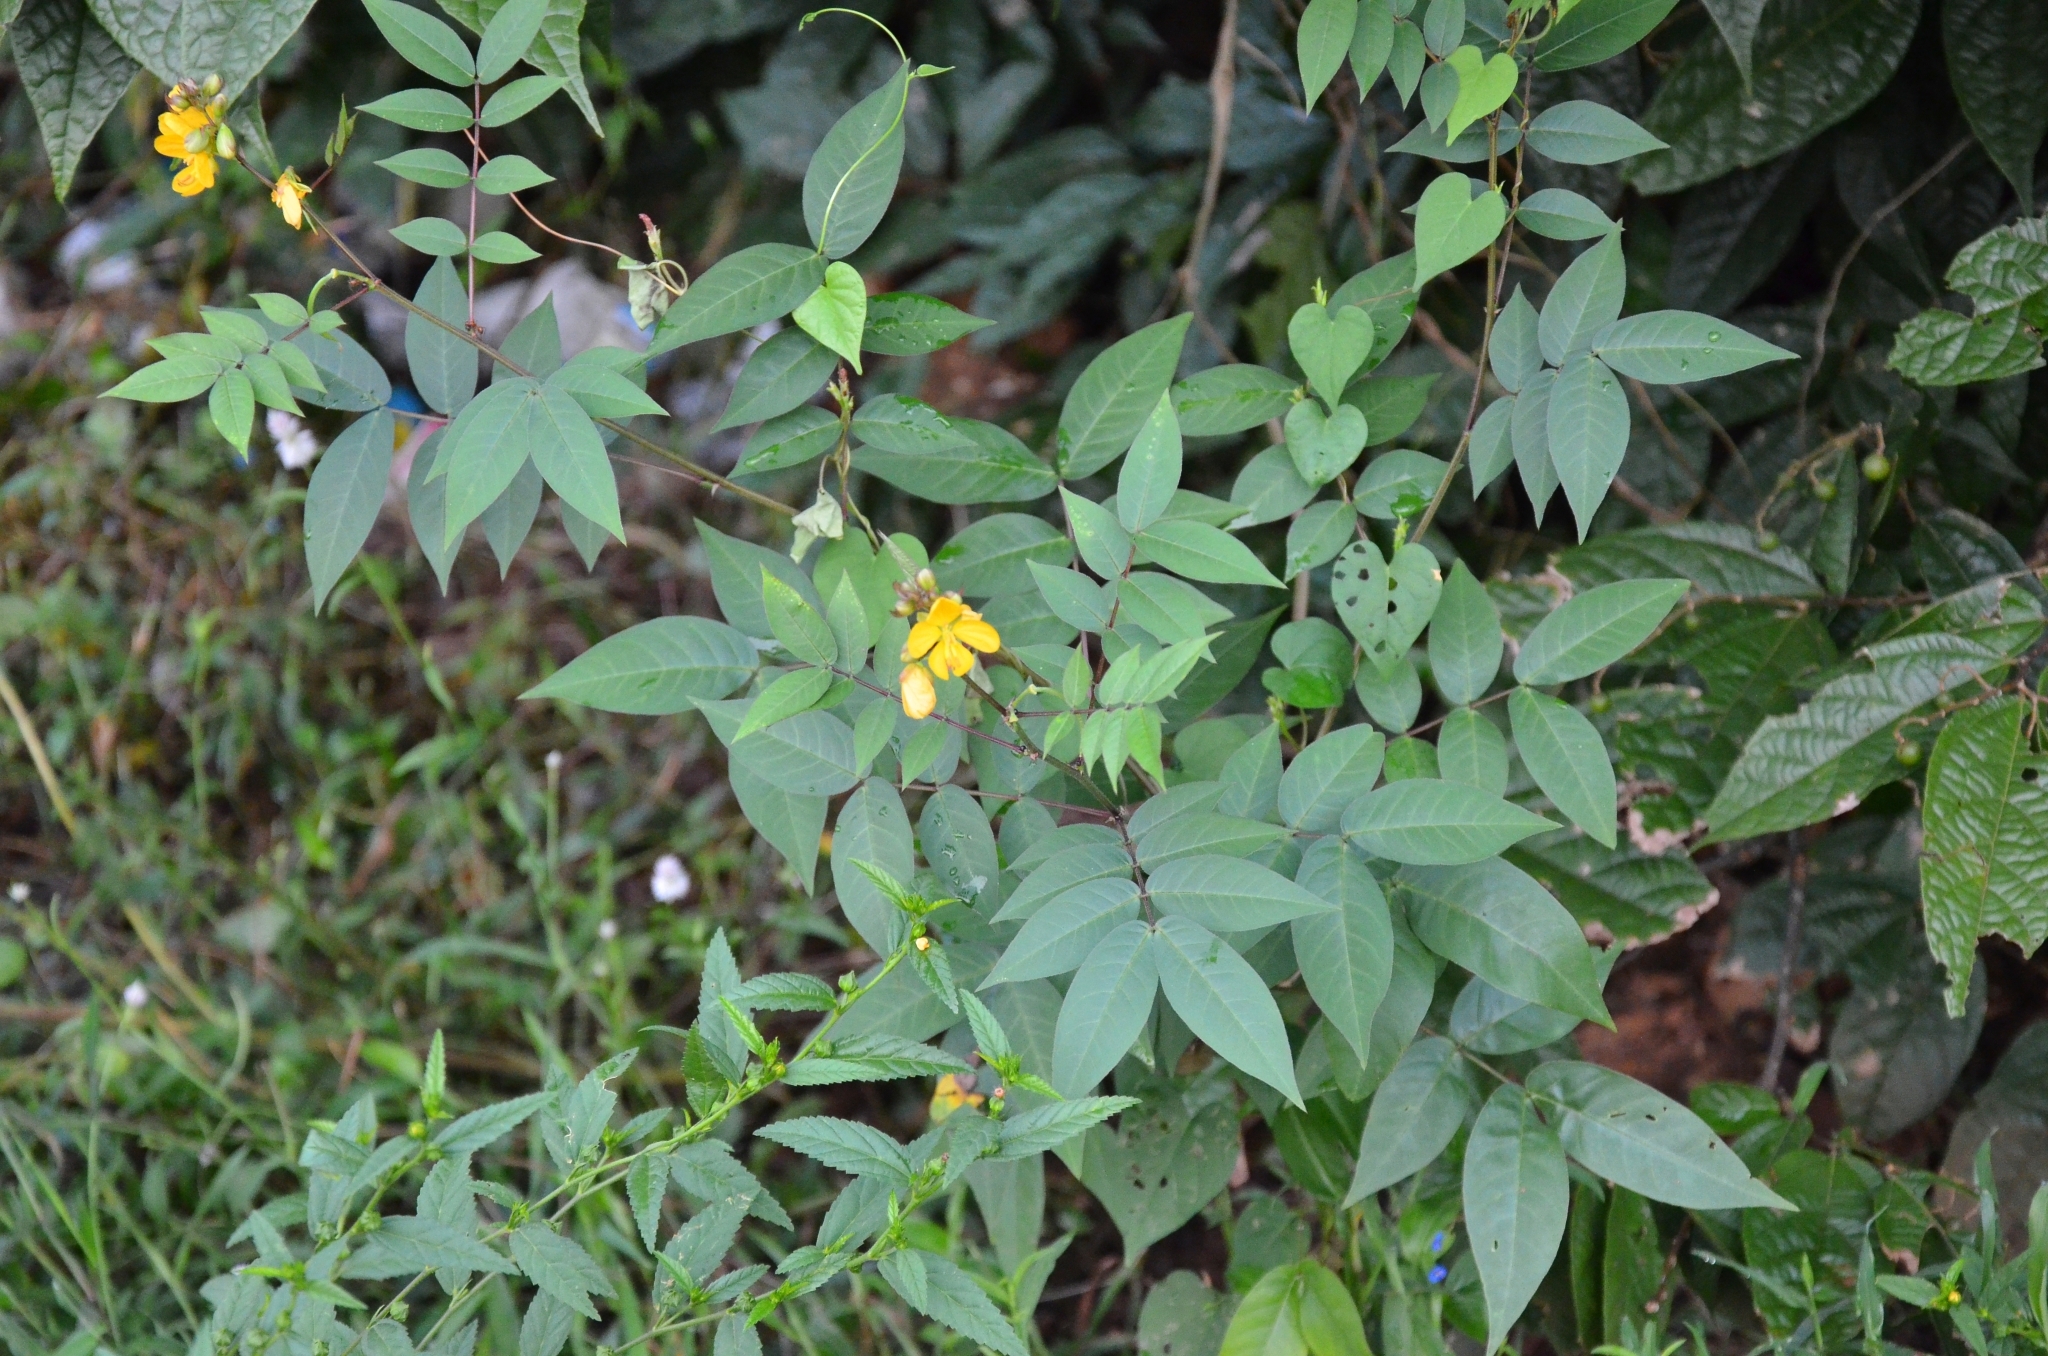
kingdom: Plantae
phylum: Tracheophyta
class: Magnoliopsida
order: Fabales
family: Fabaceae
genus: Senna
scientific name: Senna occidentalis
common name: Septicweed
